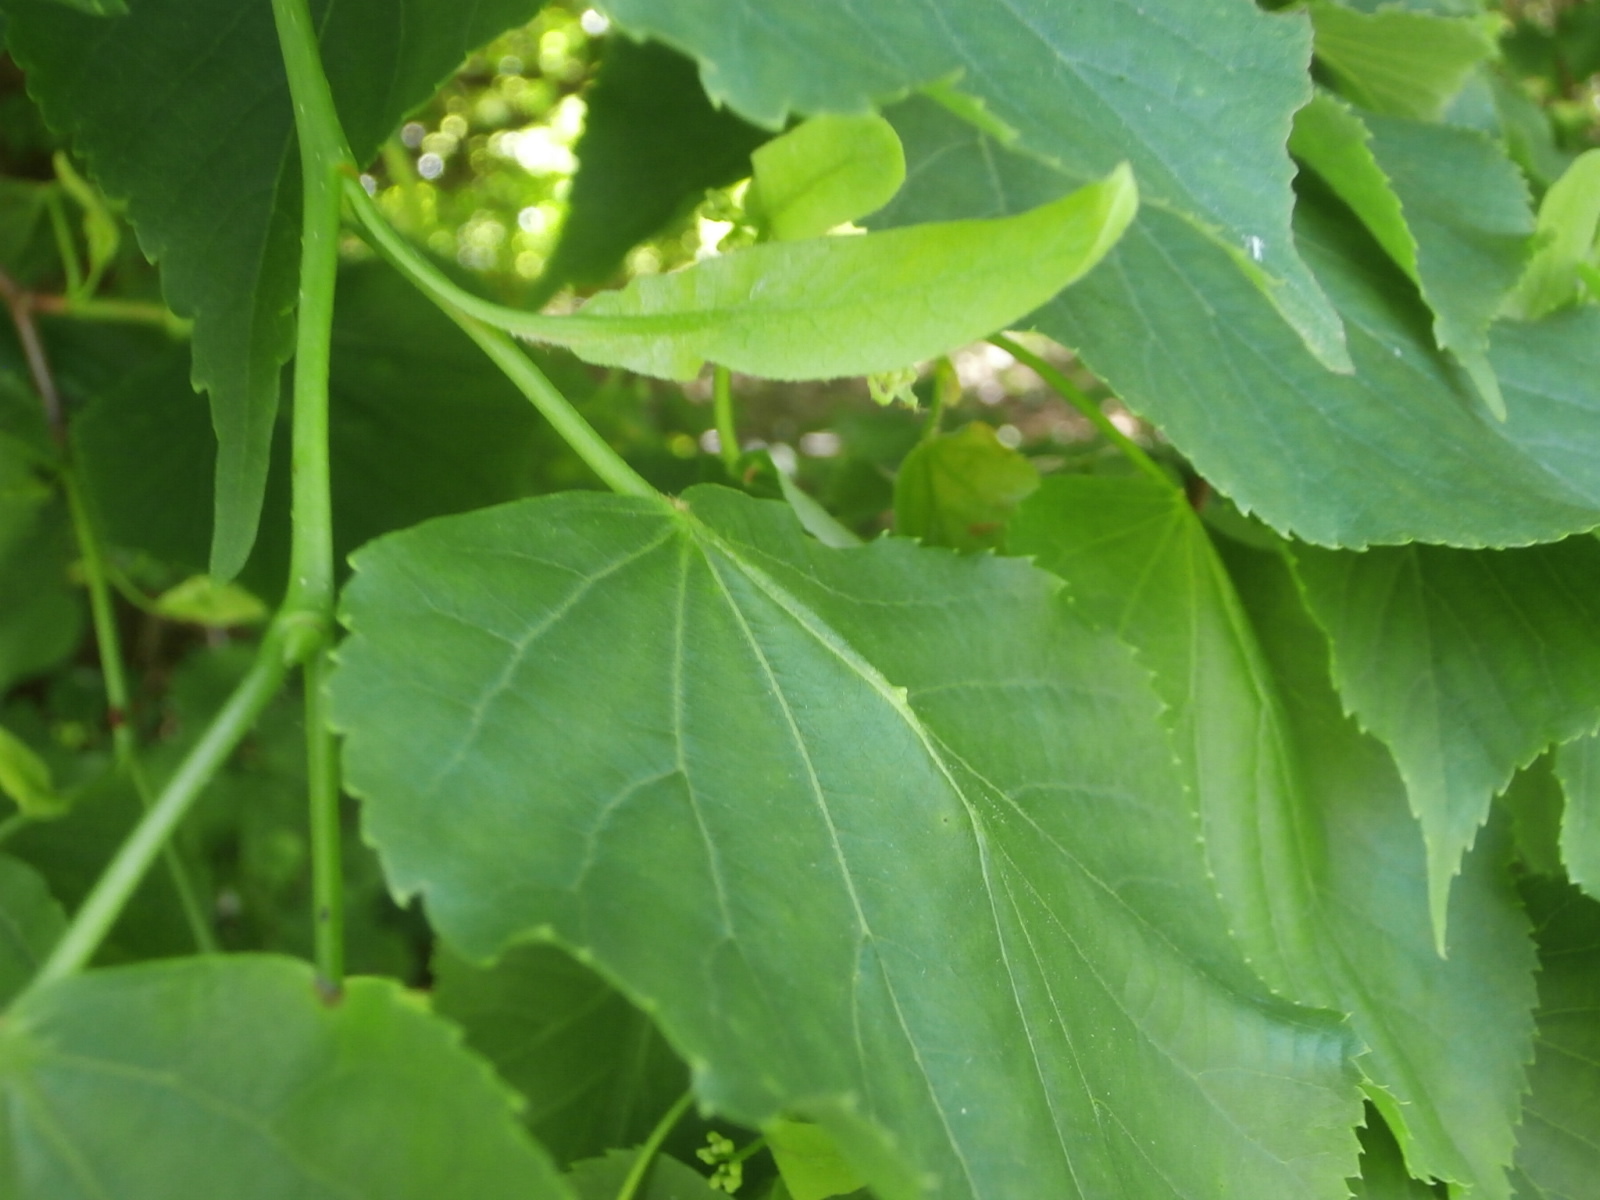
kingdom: Plantae
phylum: Tracheophyta
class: Magnoliopsida
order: Malpighiales
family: Salicaceae
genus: Populus
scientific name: Populus deltoides
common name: Eastern cottonwood
